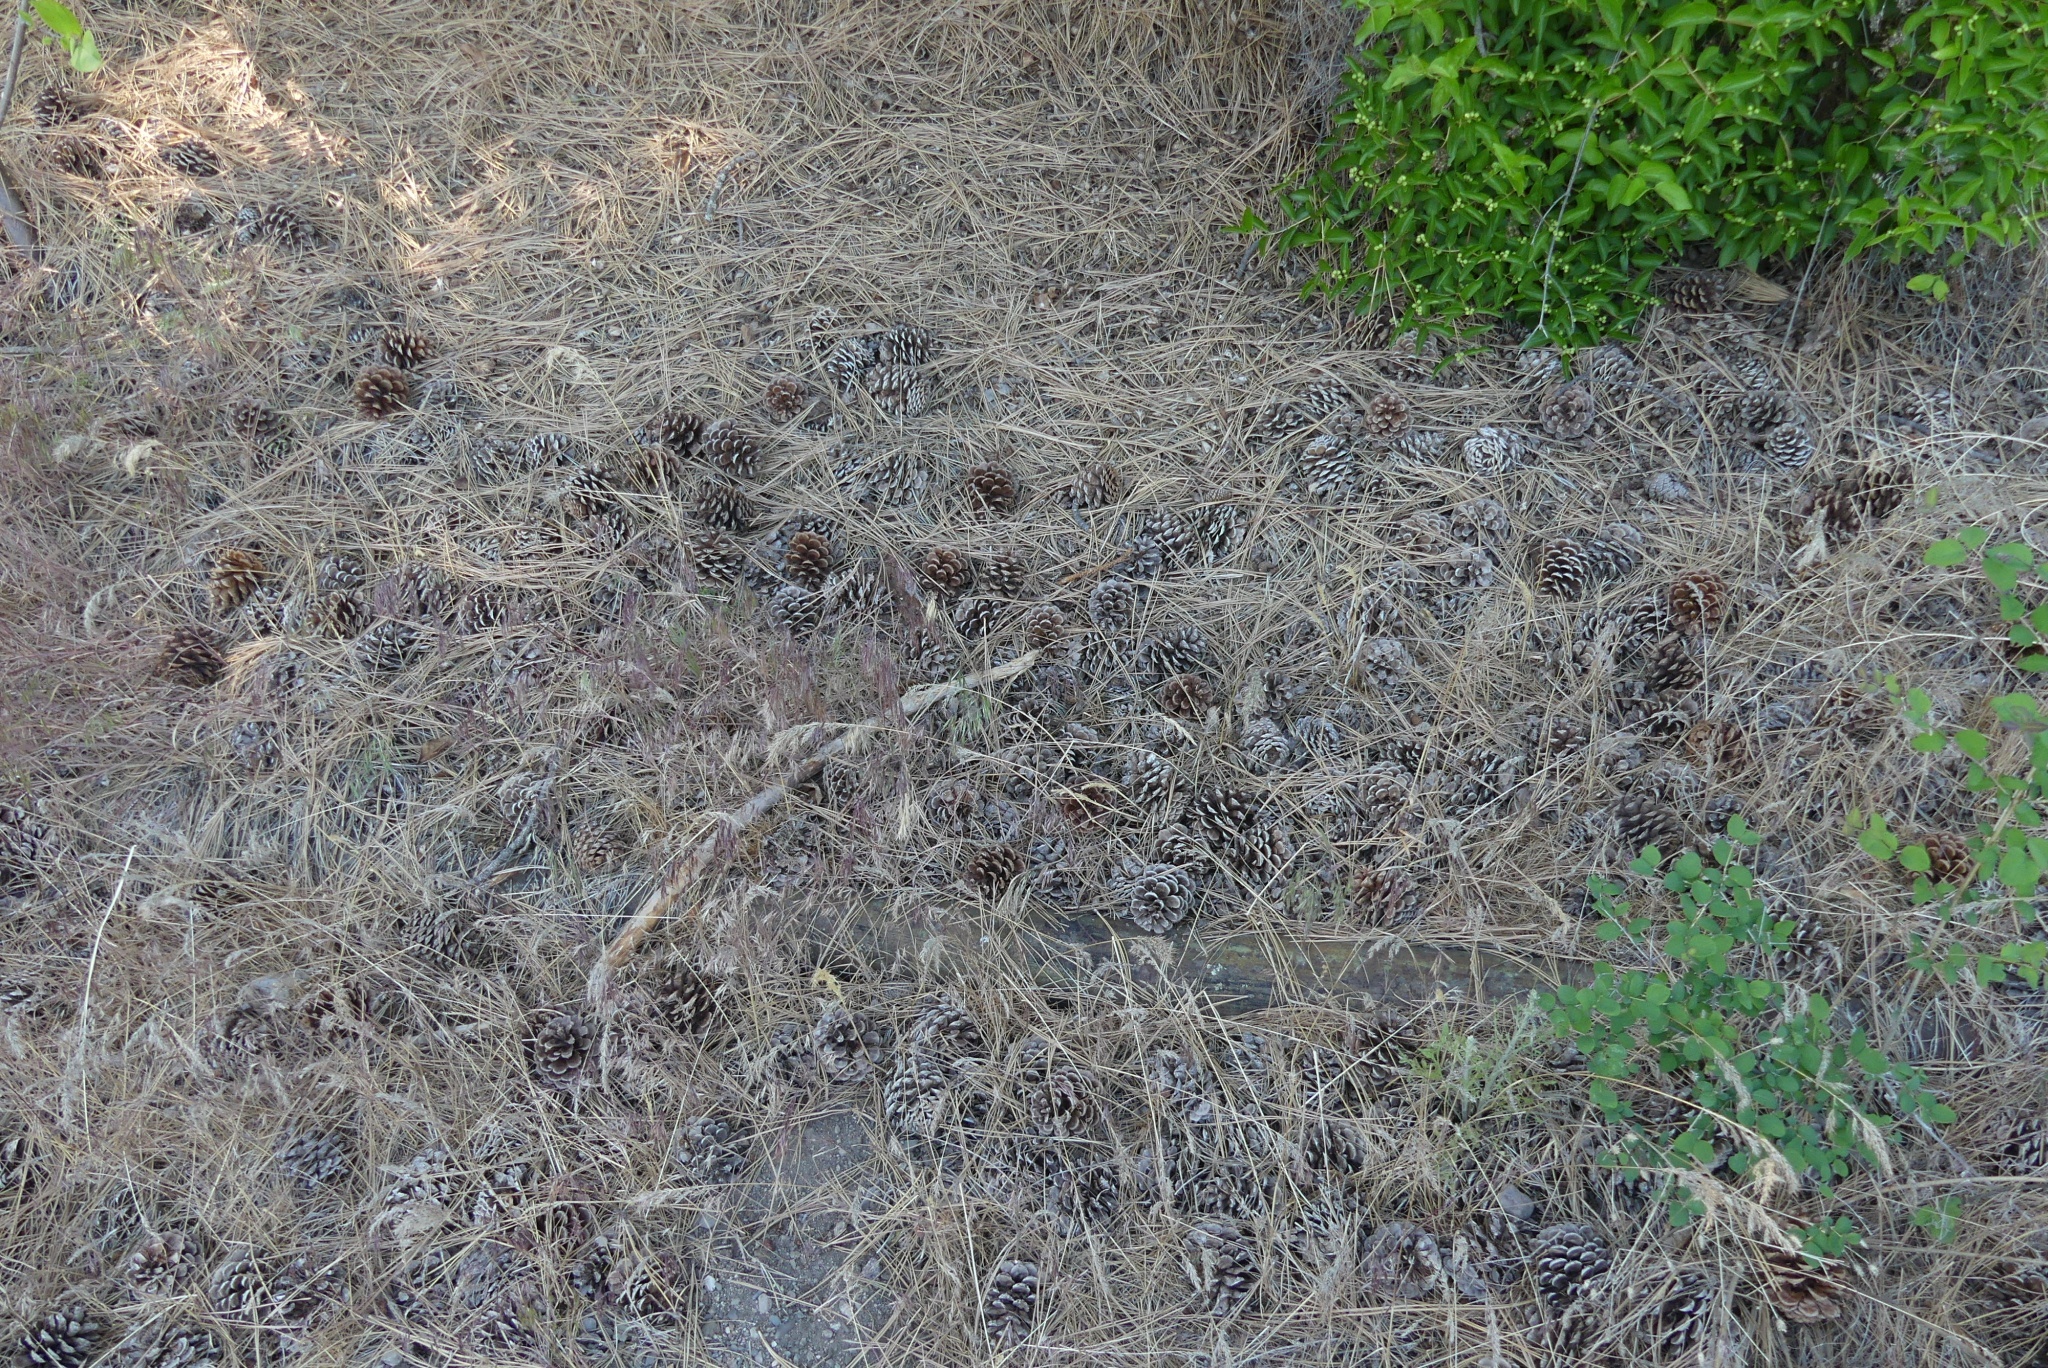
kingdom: Plantae
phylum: Tracheophyta
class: Pinopsida
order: Pinales
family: Pinaceae
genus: Pinus
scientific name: Pinus ponderosa
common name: Western yellow-pine
